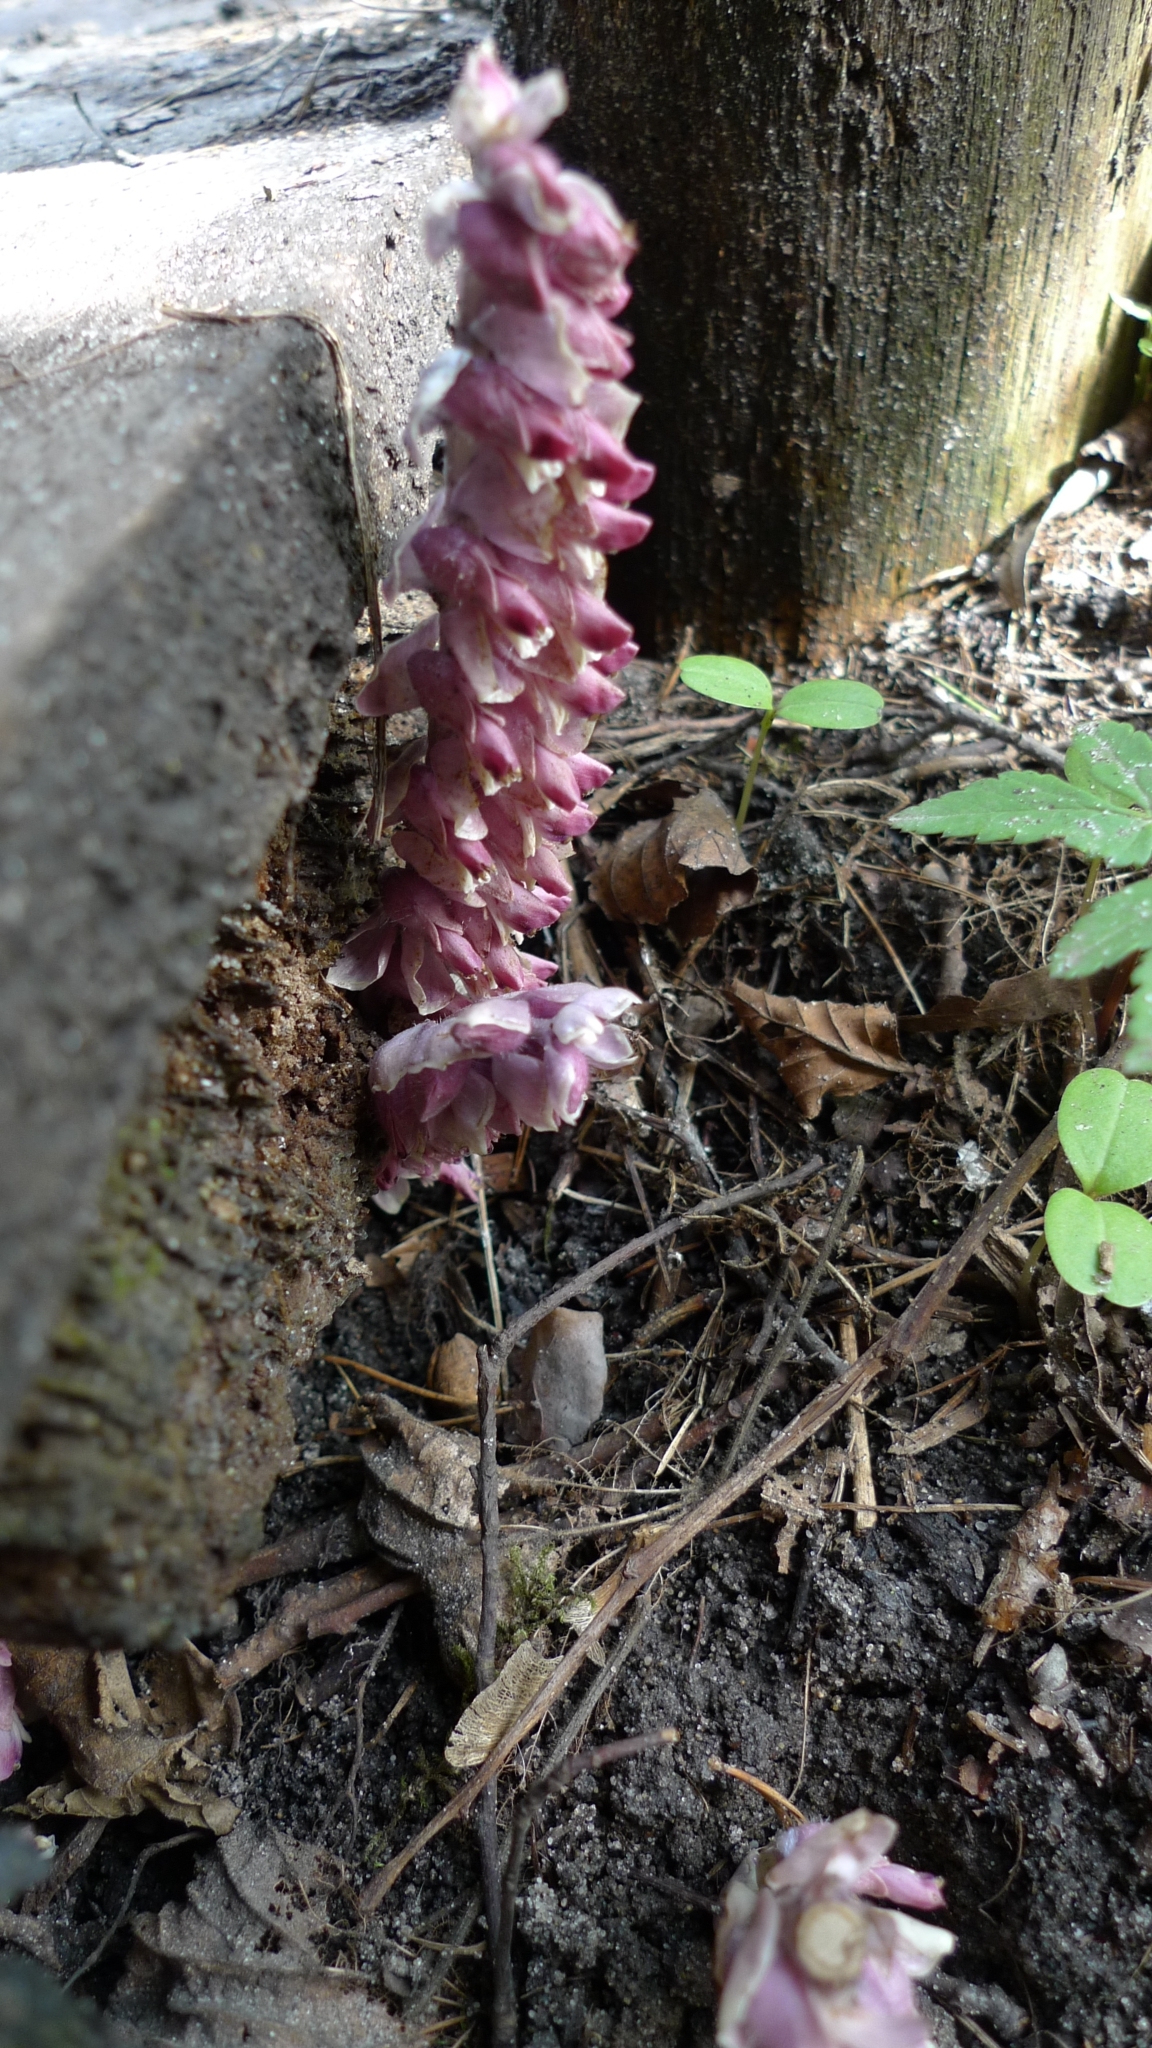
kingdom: Plantae
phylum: Tracheophyta
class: Magnoliopsida
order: Lamiales
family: Orobanchaceae
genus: Lathraea
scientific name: Lathraea squamaria
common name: Toothwort
